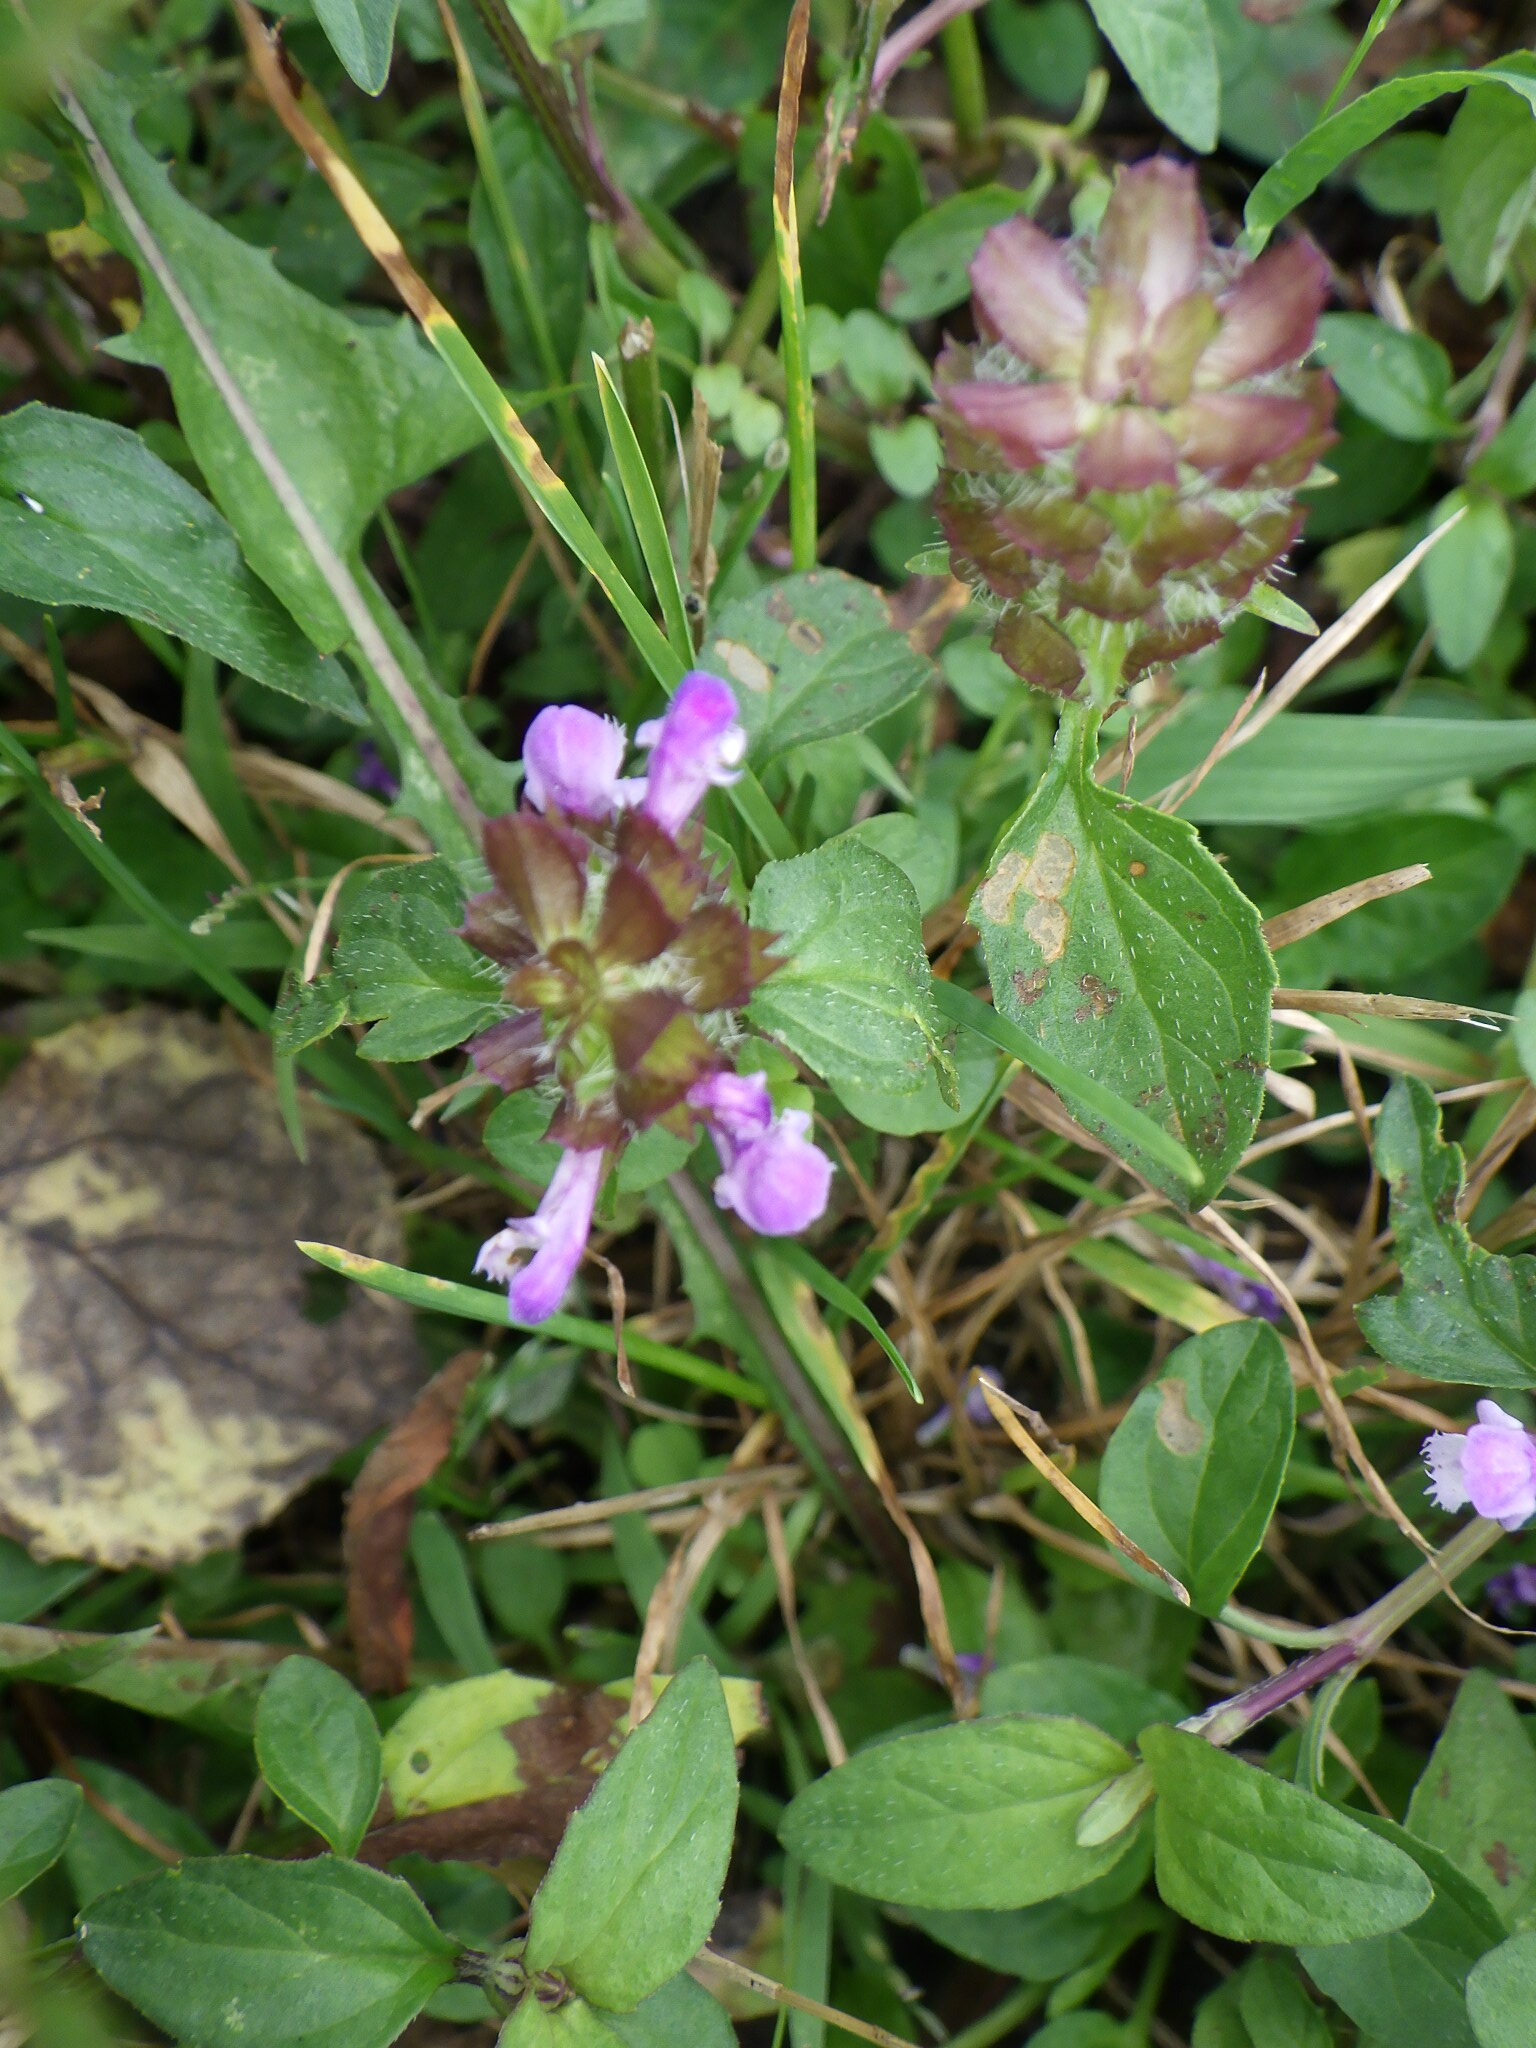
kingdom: Plantae
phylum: Tracheophyta
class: Magnoliopsida
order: Lamiales
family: Lamiaceae
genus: Prunella
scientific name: Prunella vulgaris
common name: Heal-all
